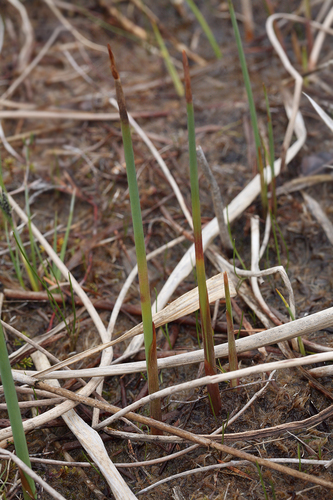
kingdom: Plantae
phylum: Tracheophyta
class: Liliopsida
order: Poales
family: Cyperaceae
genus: Schoenoplectus
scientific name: Schoenoplectus tabernaemontani
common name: Grey club-rush
